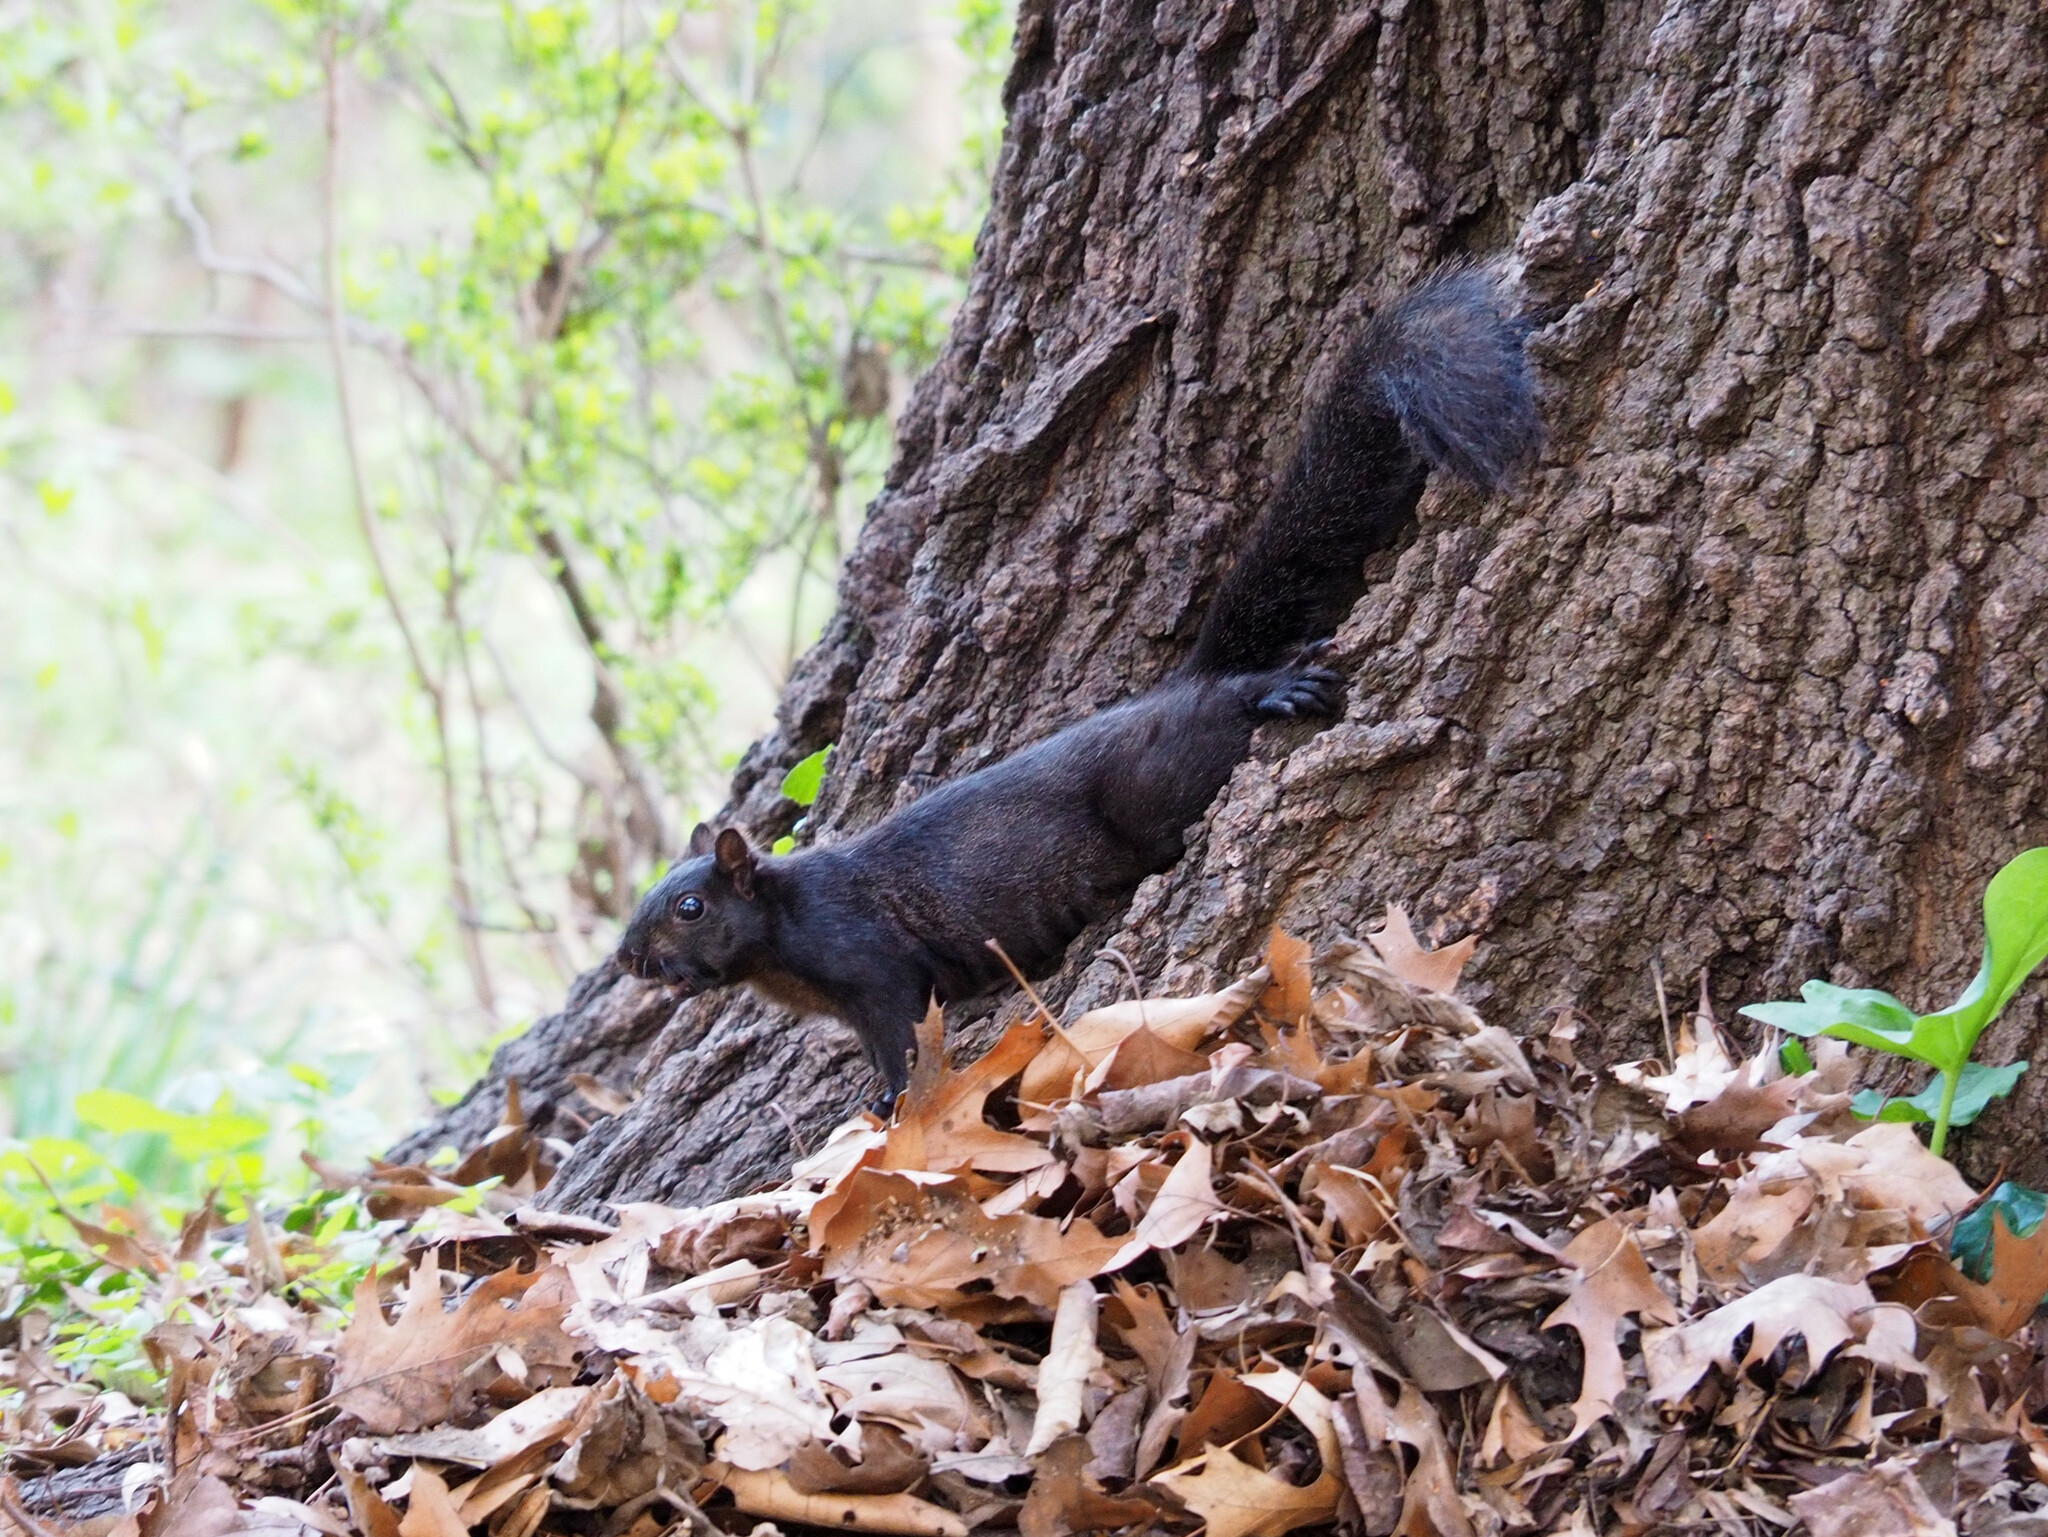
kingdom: Animalia
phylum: Chordata
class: Mammalia
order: Rodentia
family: Sciuridae
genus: Sciurus
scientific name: Sciurus carolinensis
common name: Eastern gray squirrel
